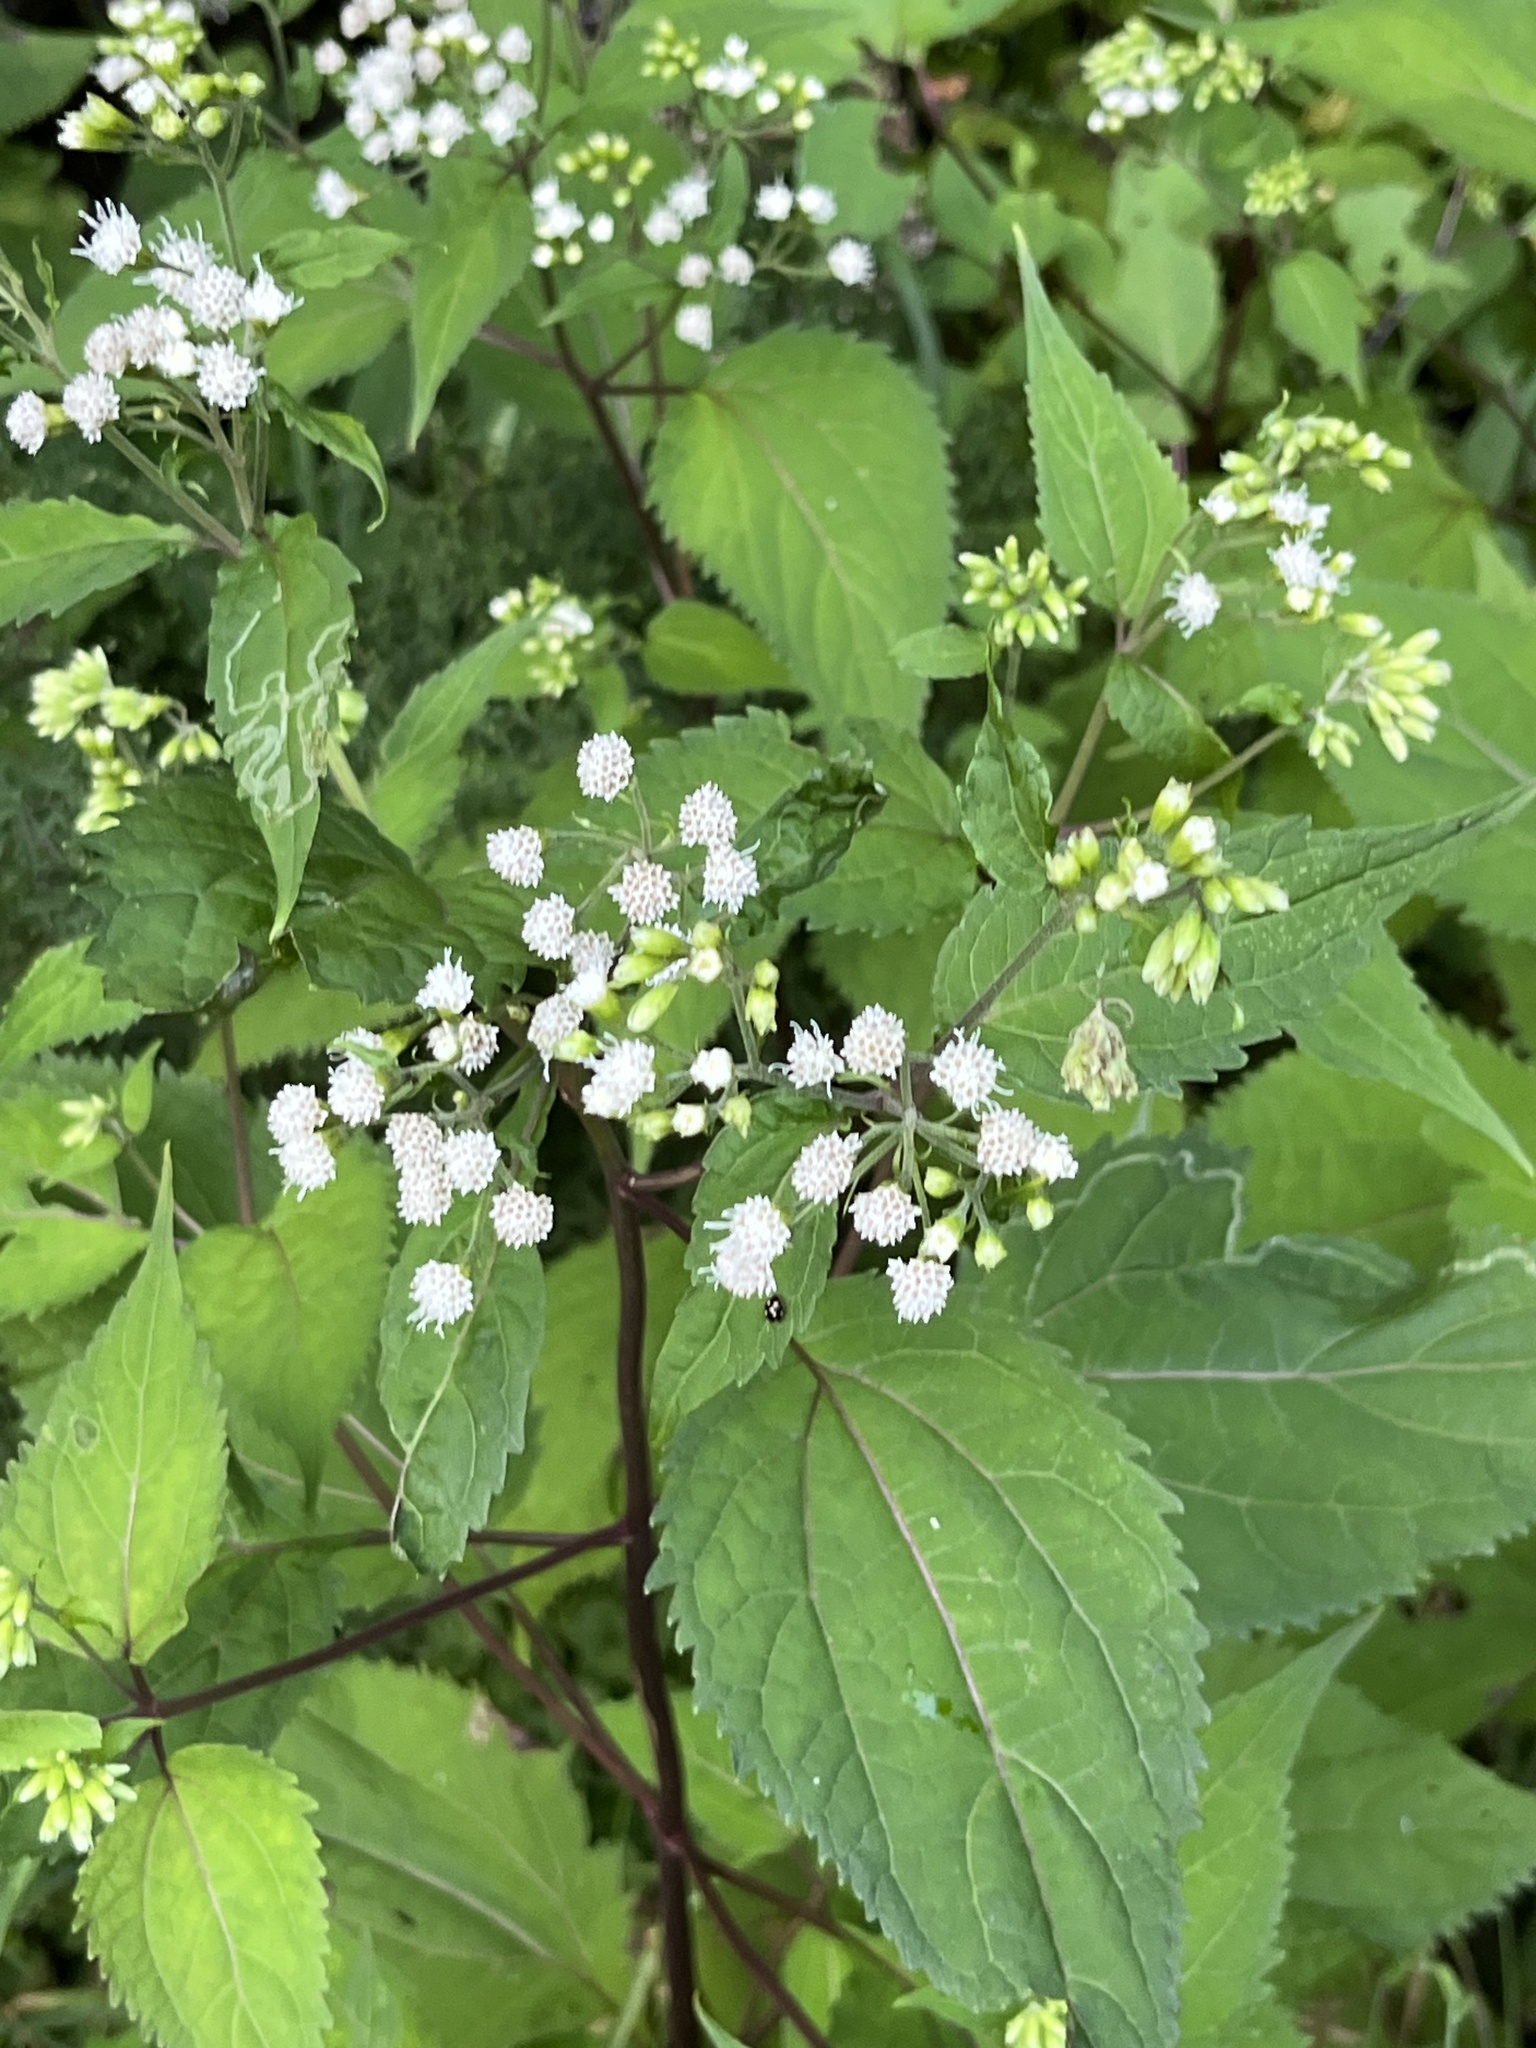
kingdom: Plantae
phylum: Tracheophyta
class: Magnoliopsida
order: Asterales
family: Asteraceae
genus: Ageratina
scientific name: Ageratina altissima
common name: White snakeroot
